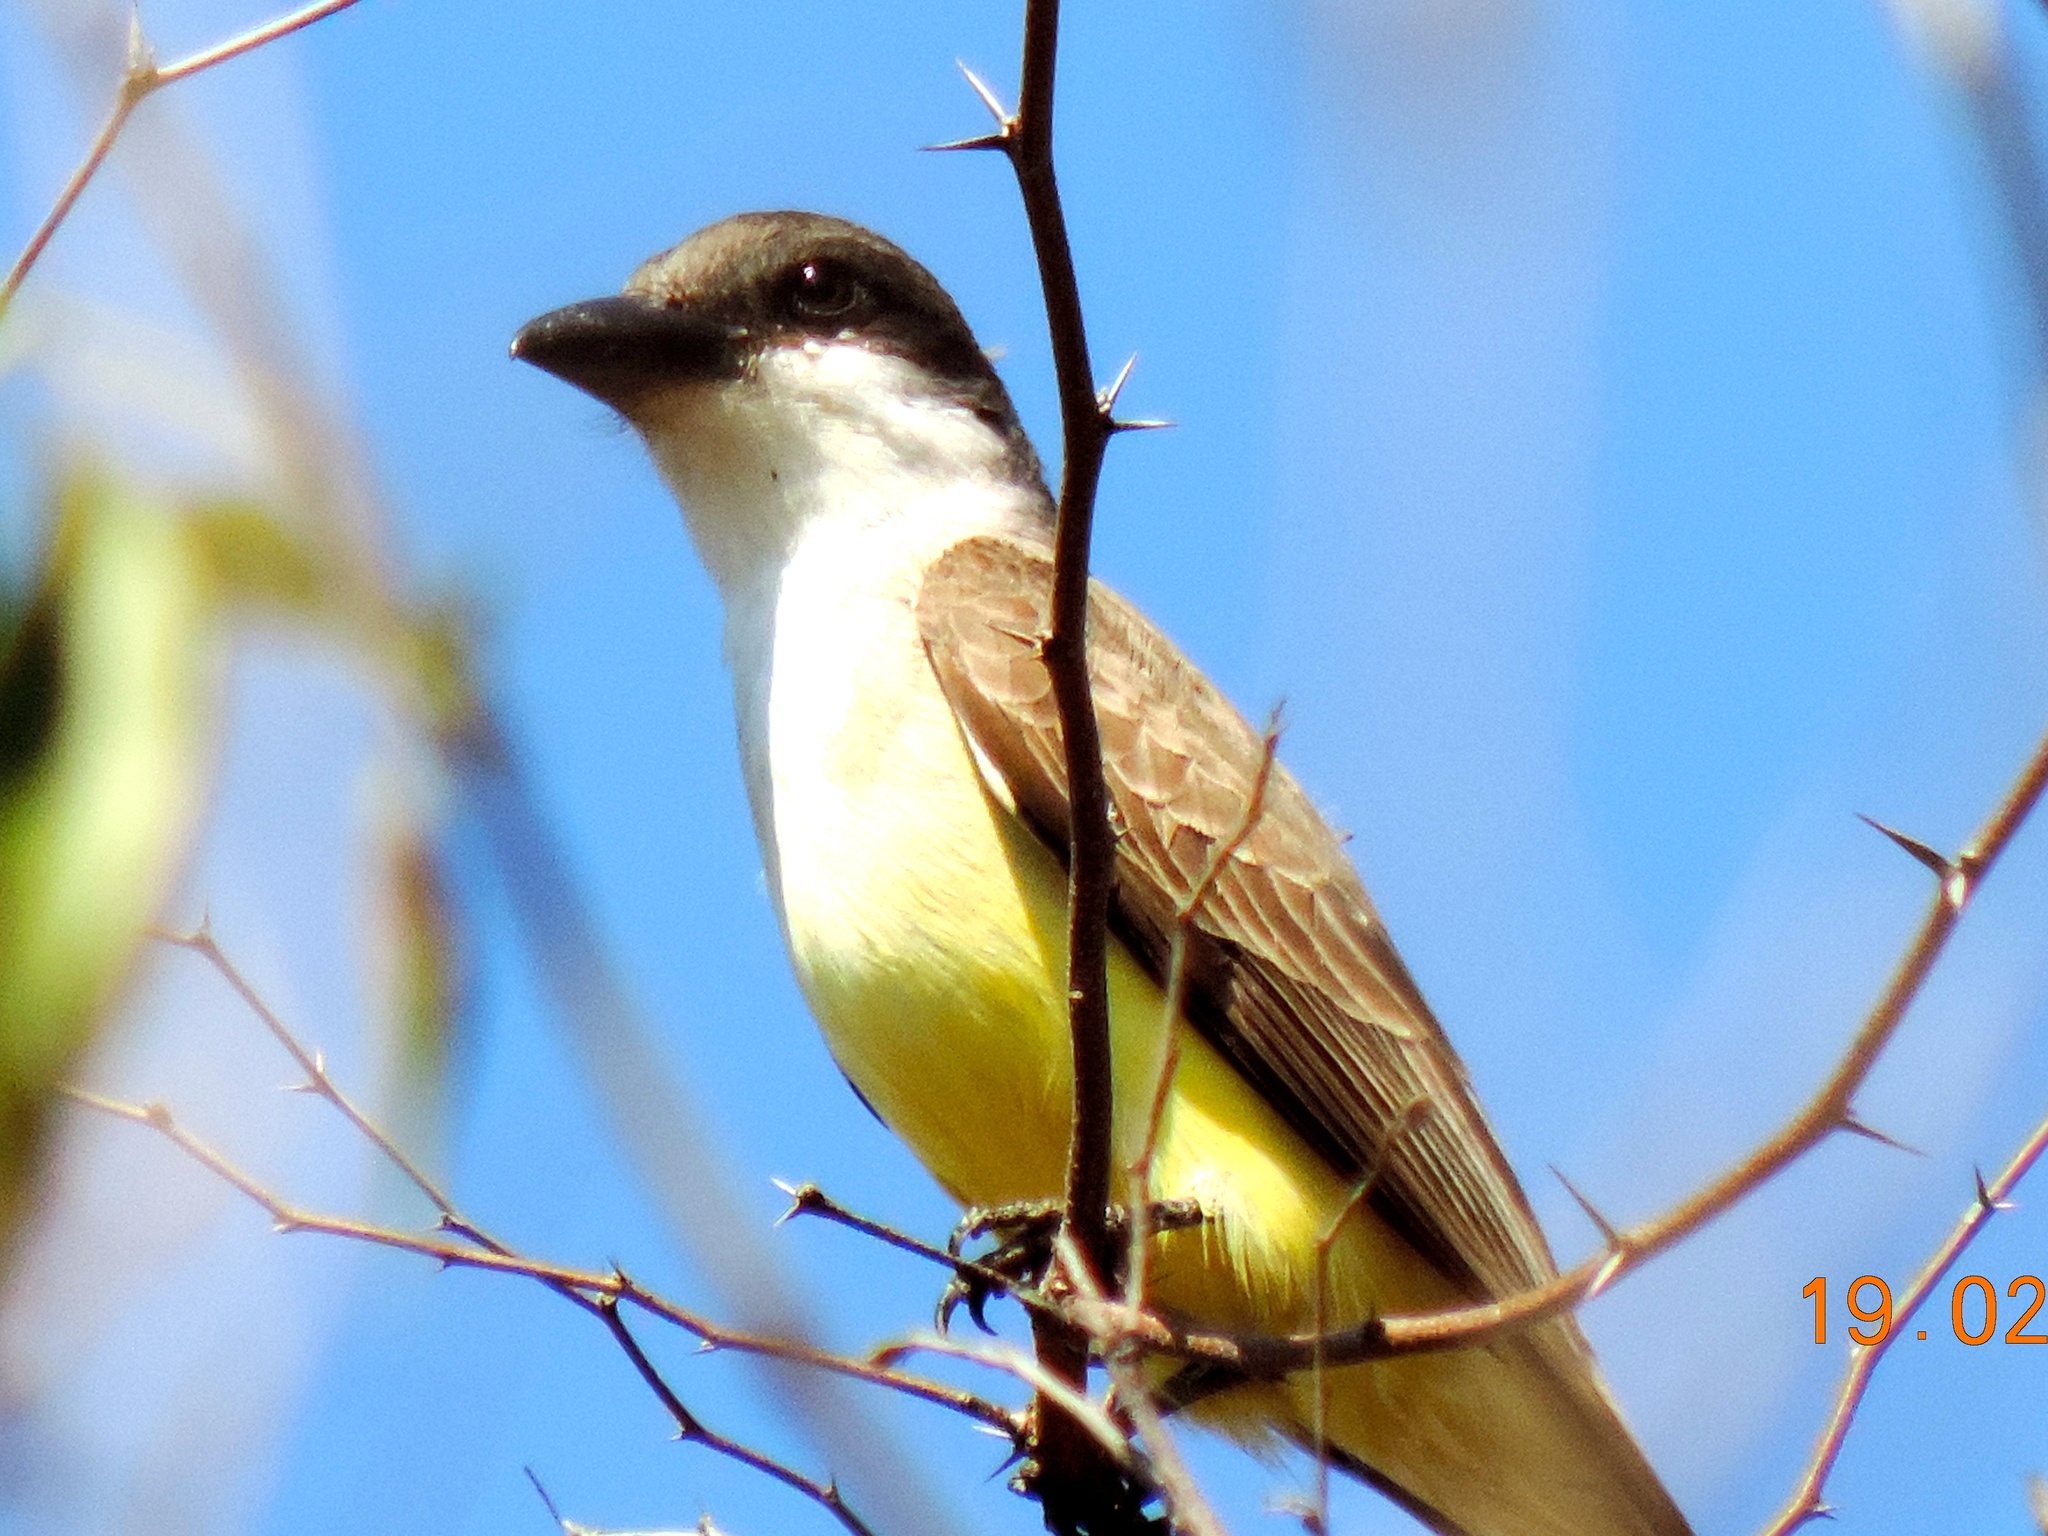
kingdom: Animalia
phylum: Chordata
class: Aves
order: Passeriformes
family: Tyrannidae
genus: Tyrannus
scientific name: Tyrannus crassirostris
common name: Thick-billed kingbird
